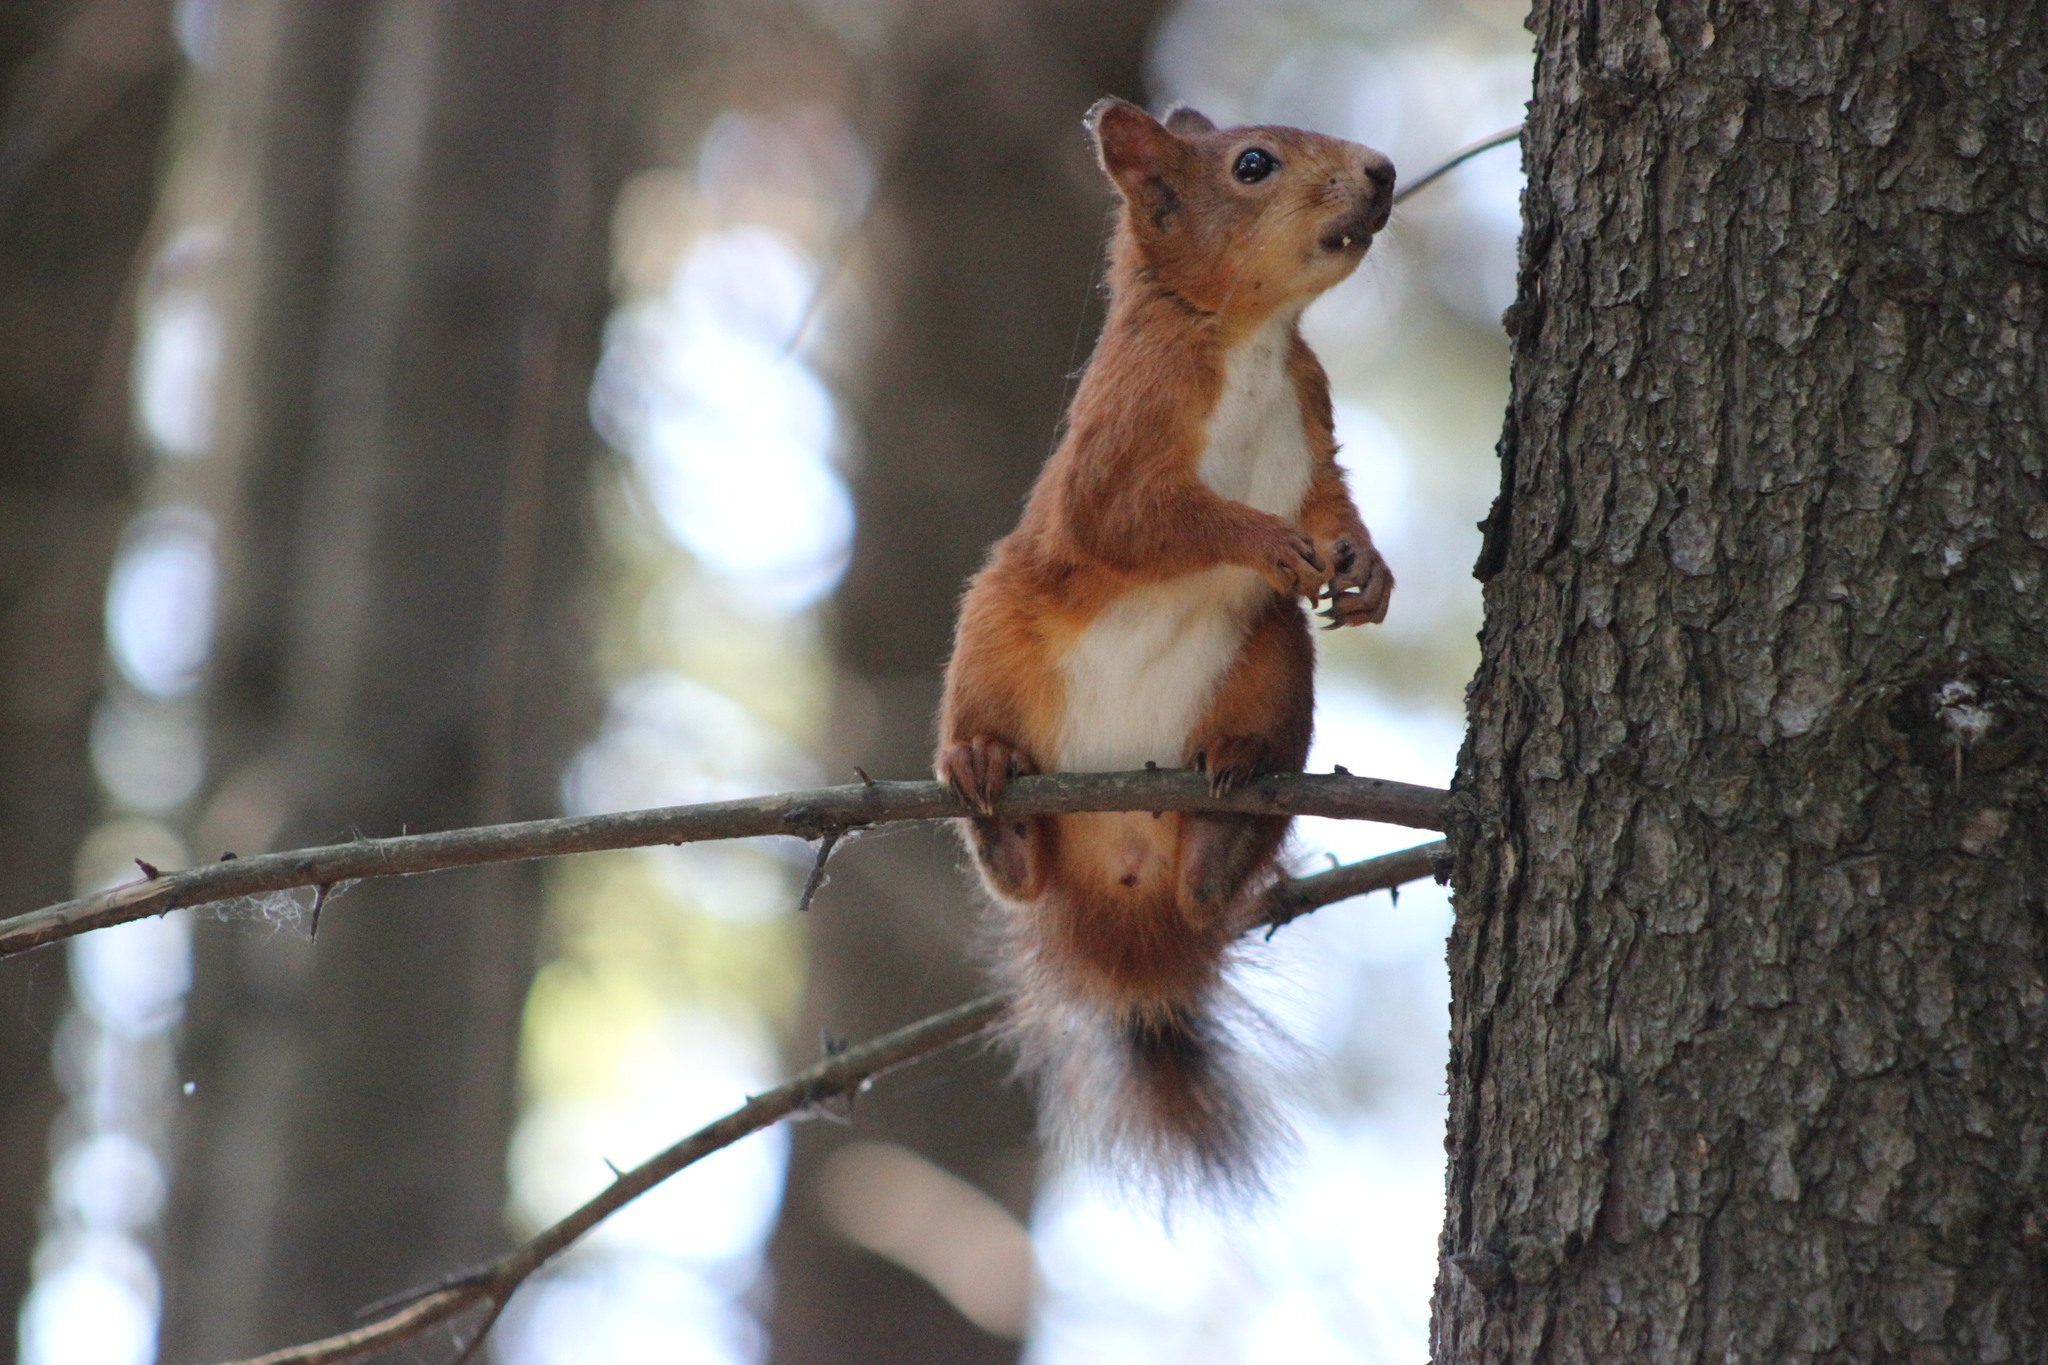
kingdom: Animalia
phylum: Chordata
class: Mammalia
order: Rodentia
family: Sciuridae
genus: Sciurus
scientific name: Sciurus vulgaris
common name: Eurasian red squirrel
